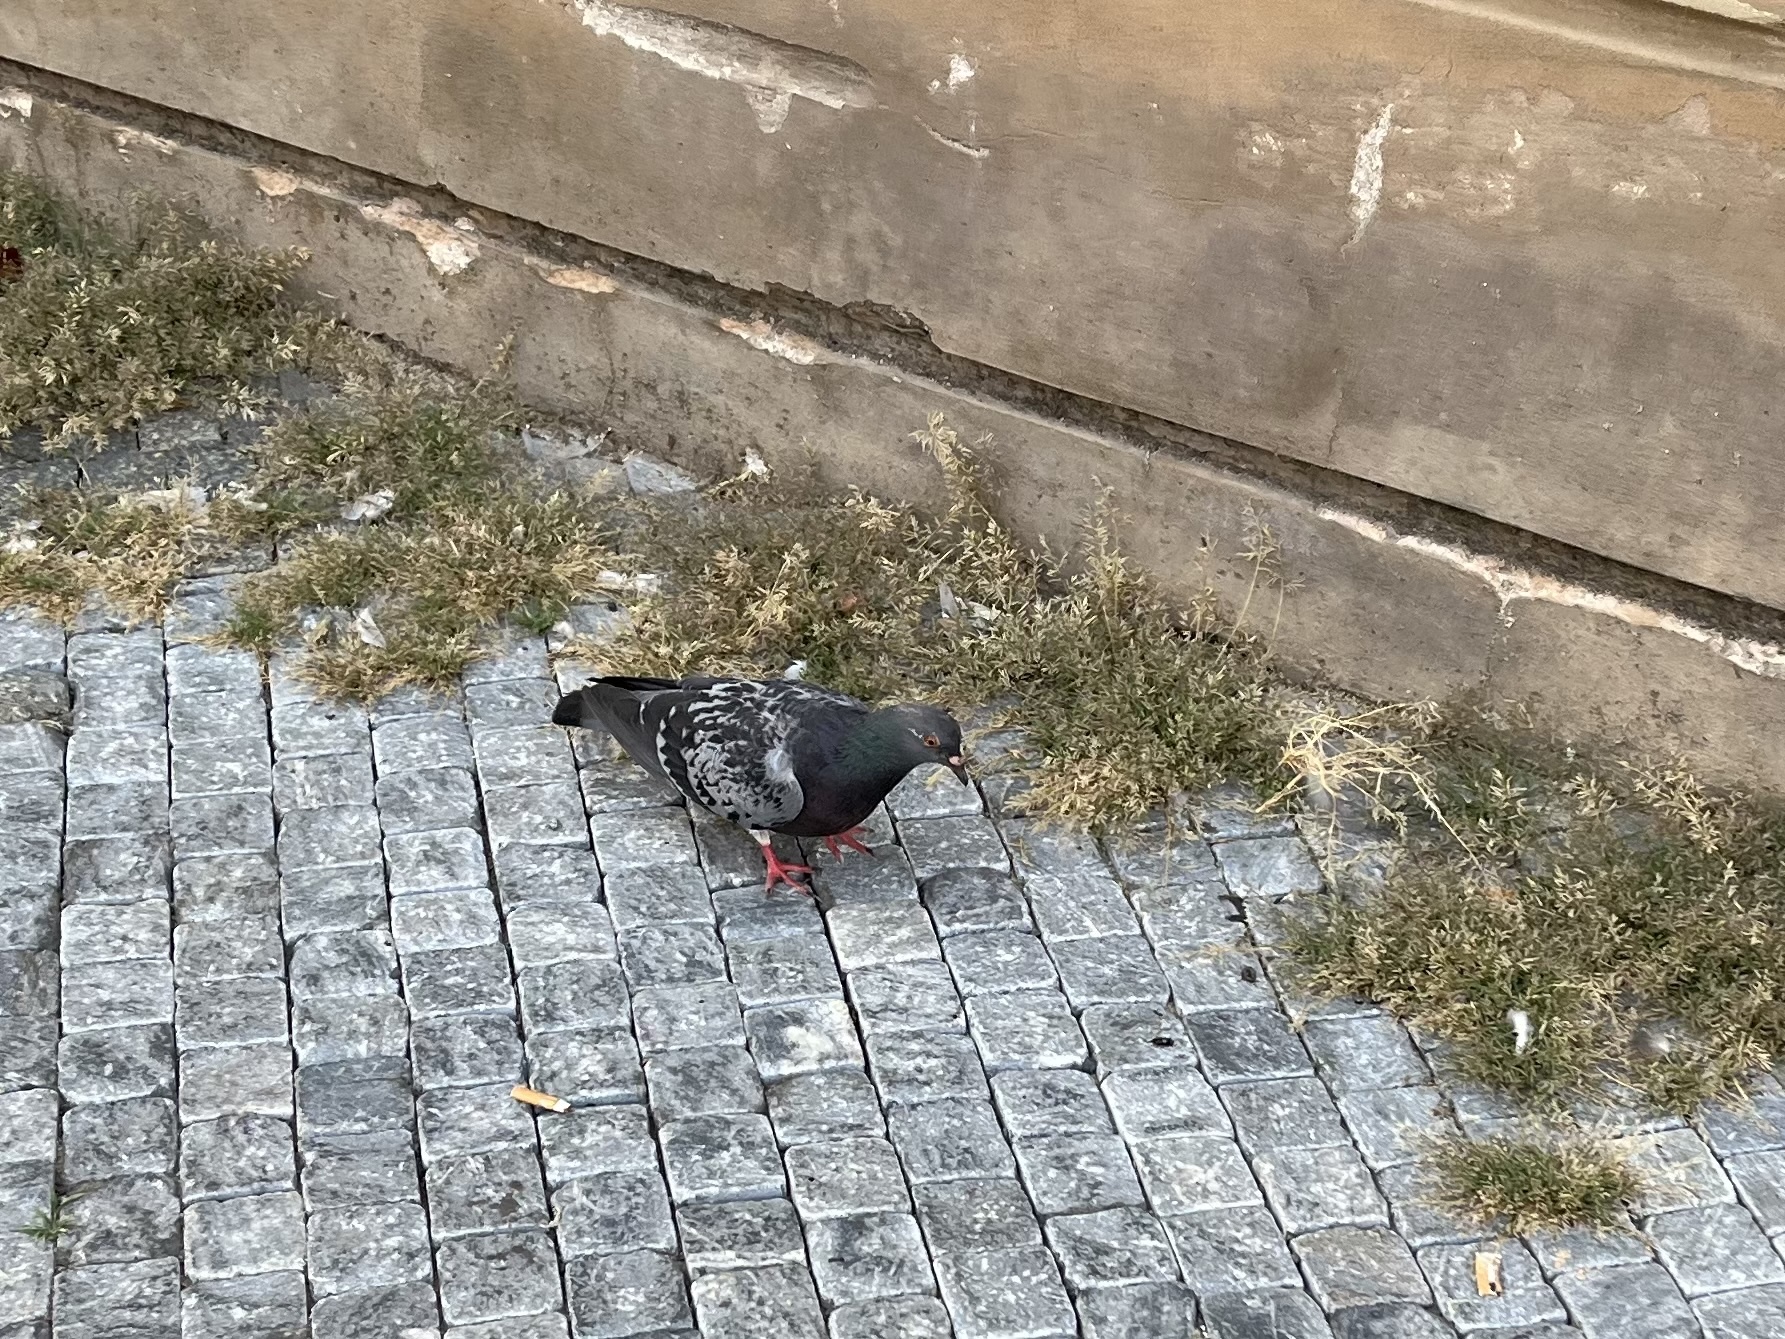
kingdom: Animalia
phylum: Chordata
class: Aves
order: Columbiformes
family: Columbidae
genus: Columba
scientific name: Columba livia
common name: Rock pigeon
